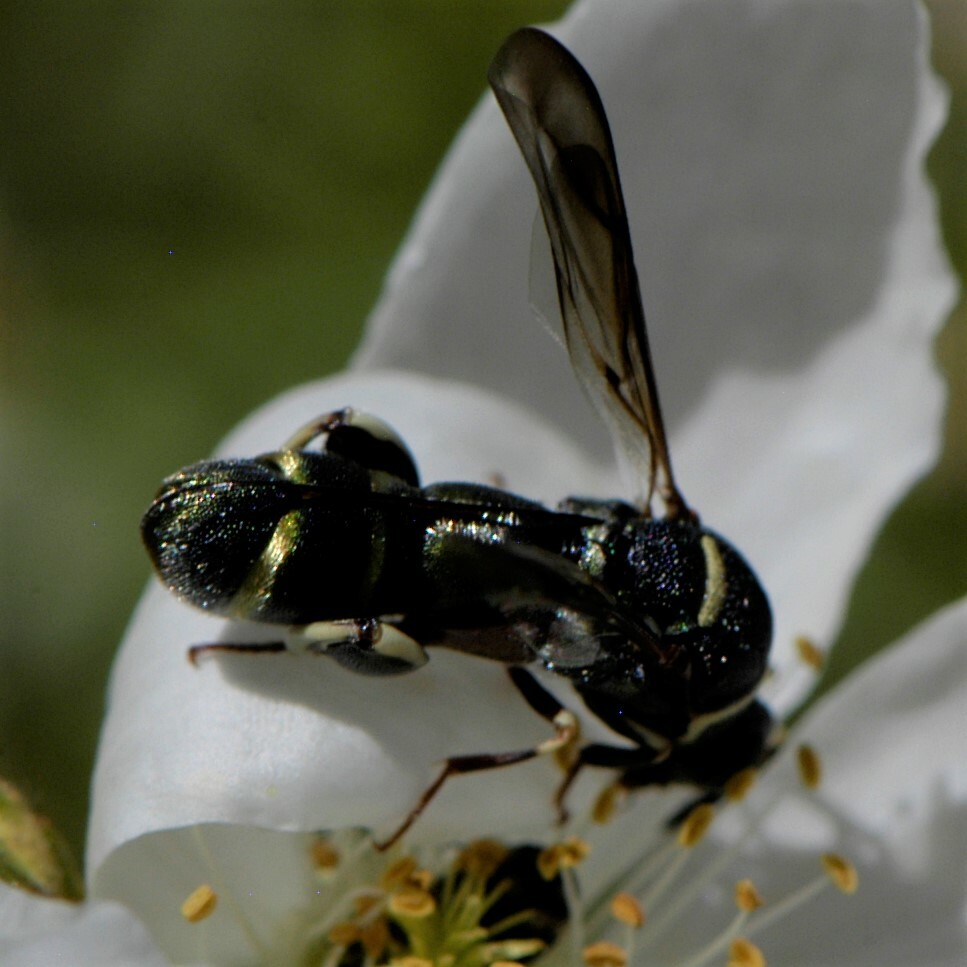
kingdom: Animalia
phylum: Arthropoda
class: Insecta
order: Hymenoptera
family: Leucospidae
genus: Leucospis
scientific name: Leucospis birkmani
